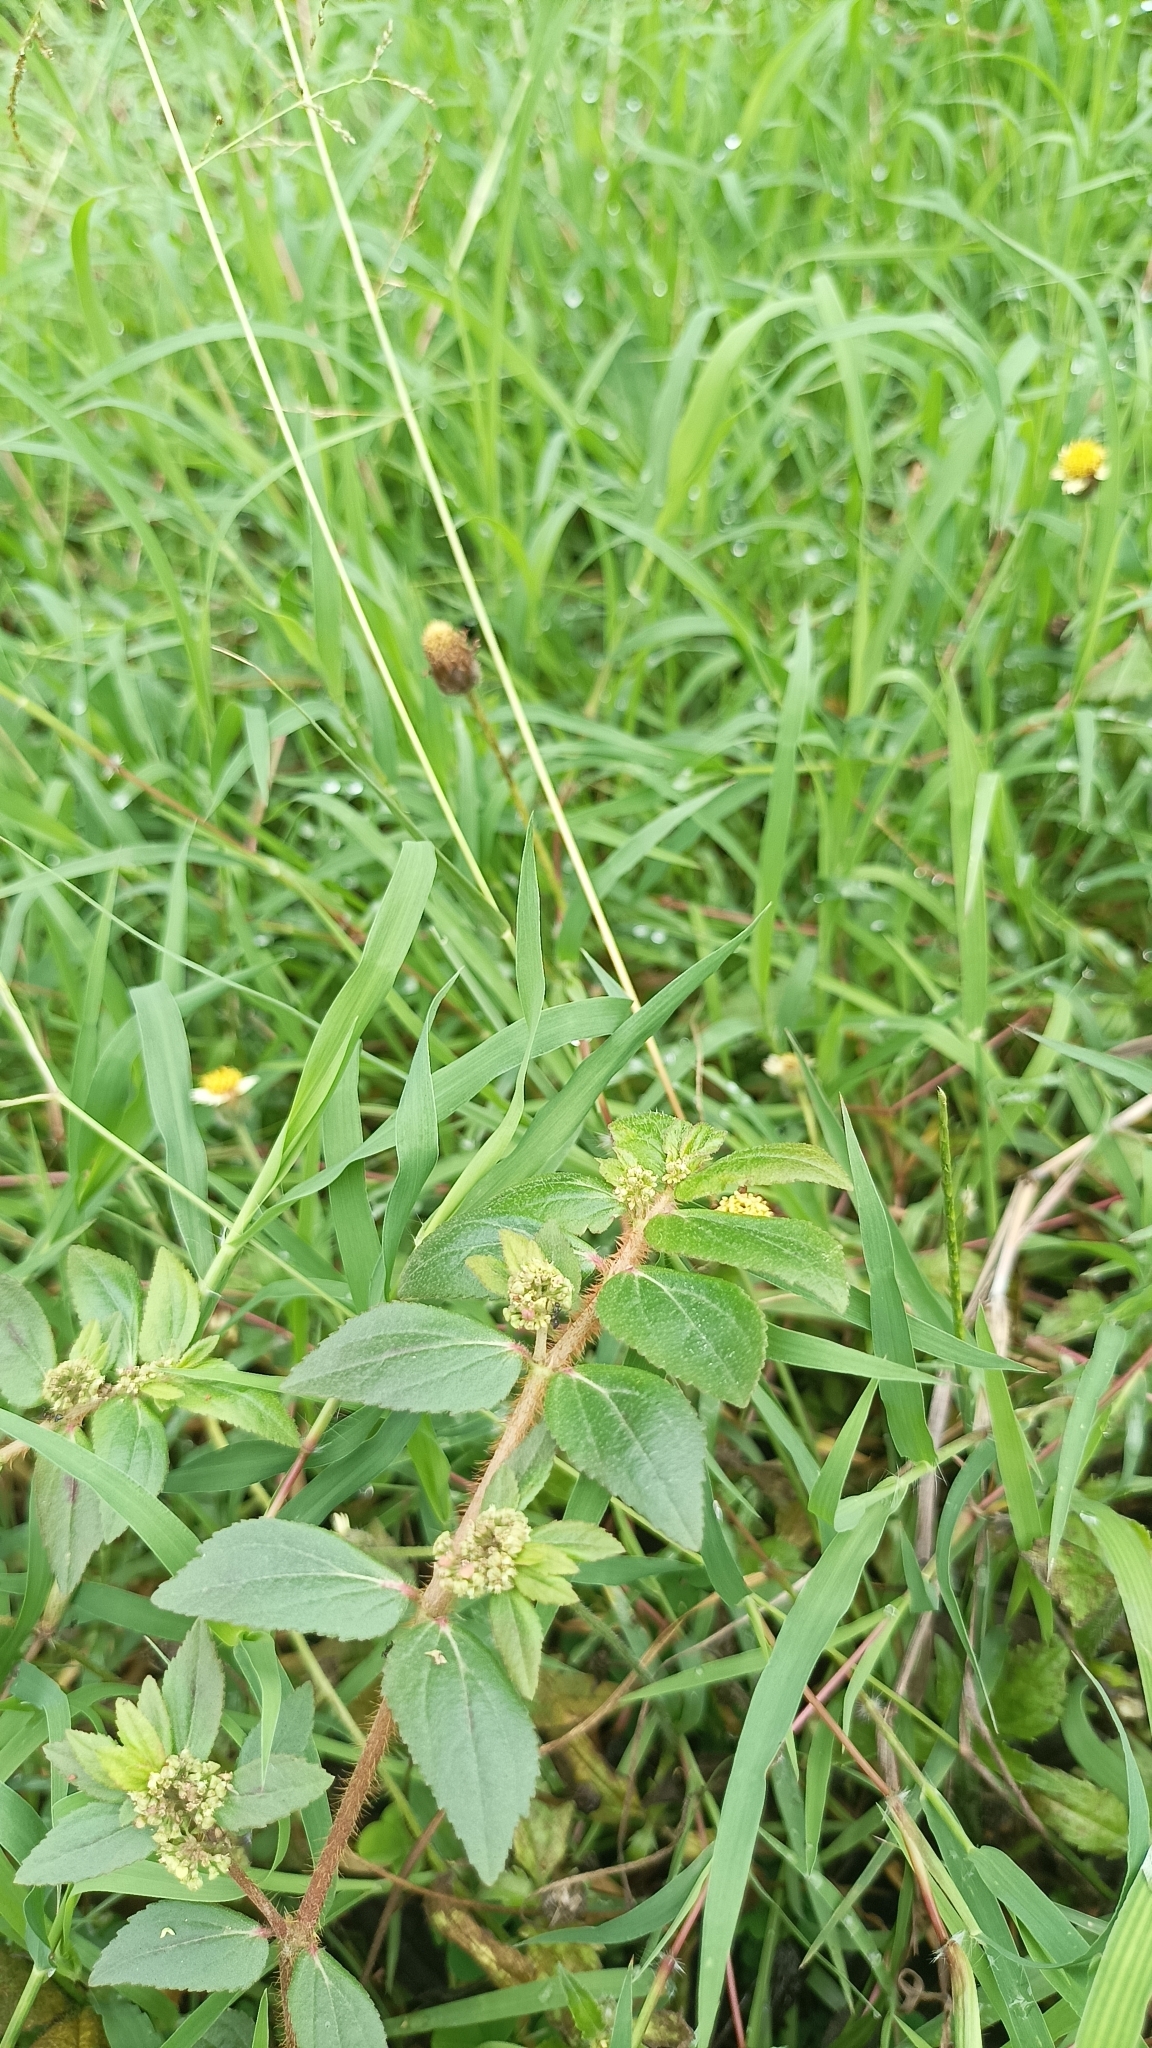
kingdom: Plantae
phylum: Tracheophyta
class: Magnoliopsida
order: Malpighiales
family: Euphorbiaceae
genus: Euphorbia
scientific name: Euphorbia hirta
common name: Pillpod sandmat
